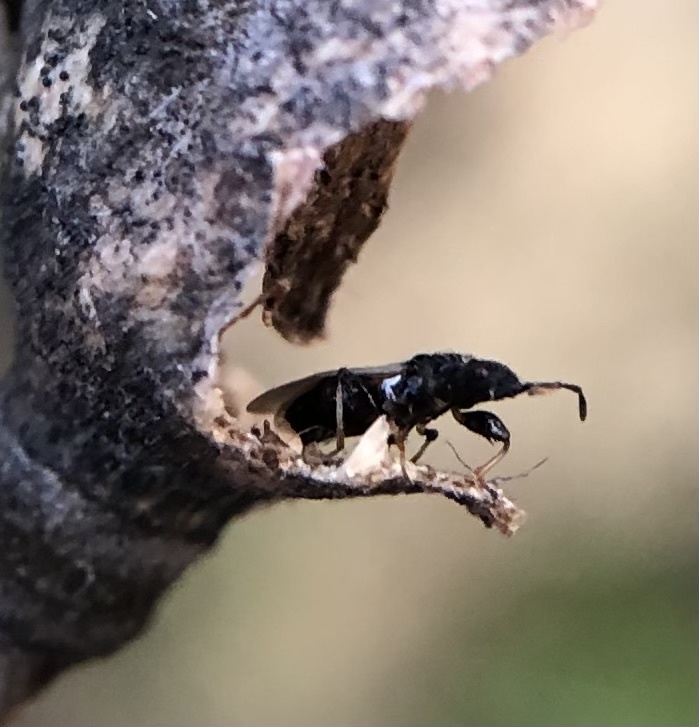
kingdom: Animalia
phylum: Arthropoda
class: Insecta
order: Hemiptera
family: Oxycarenidae
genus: Brachyplax
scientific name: Brachyplax tenuis
